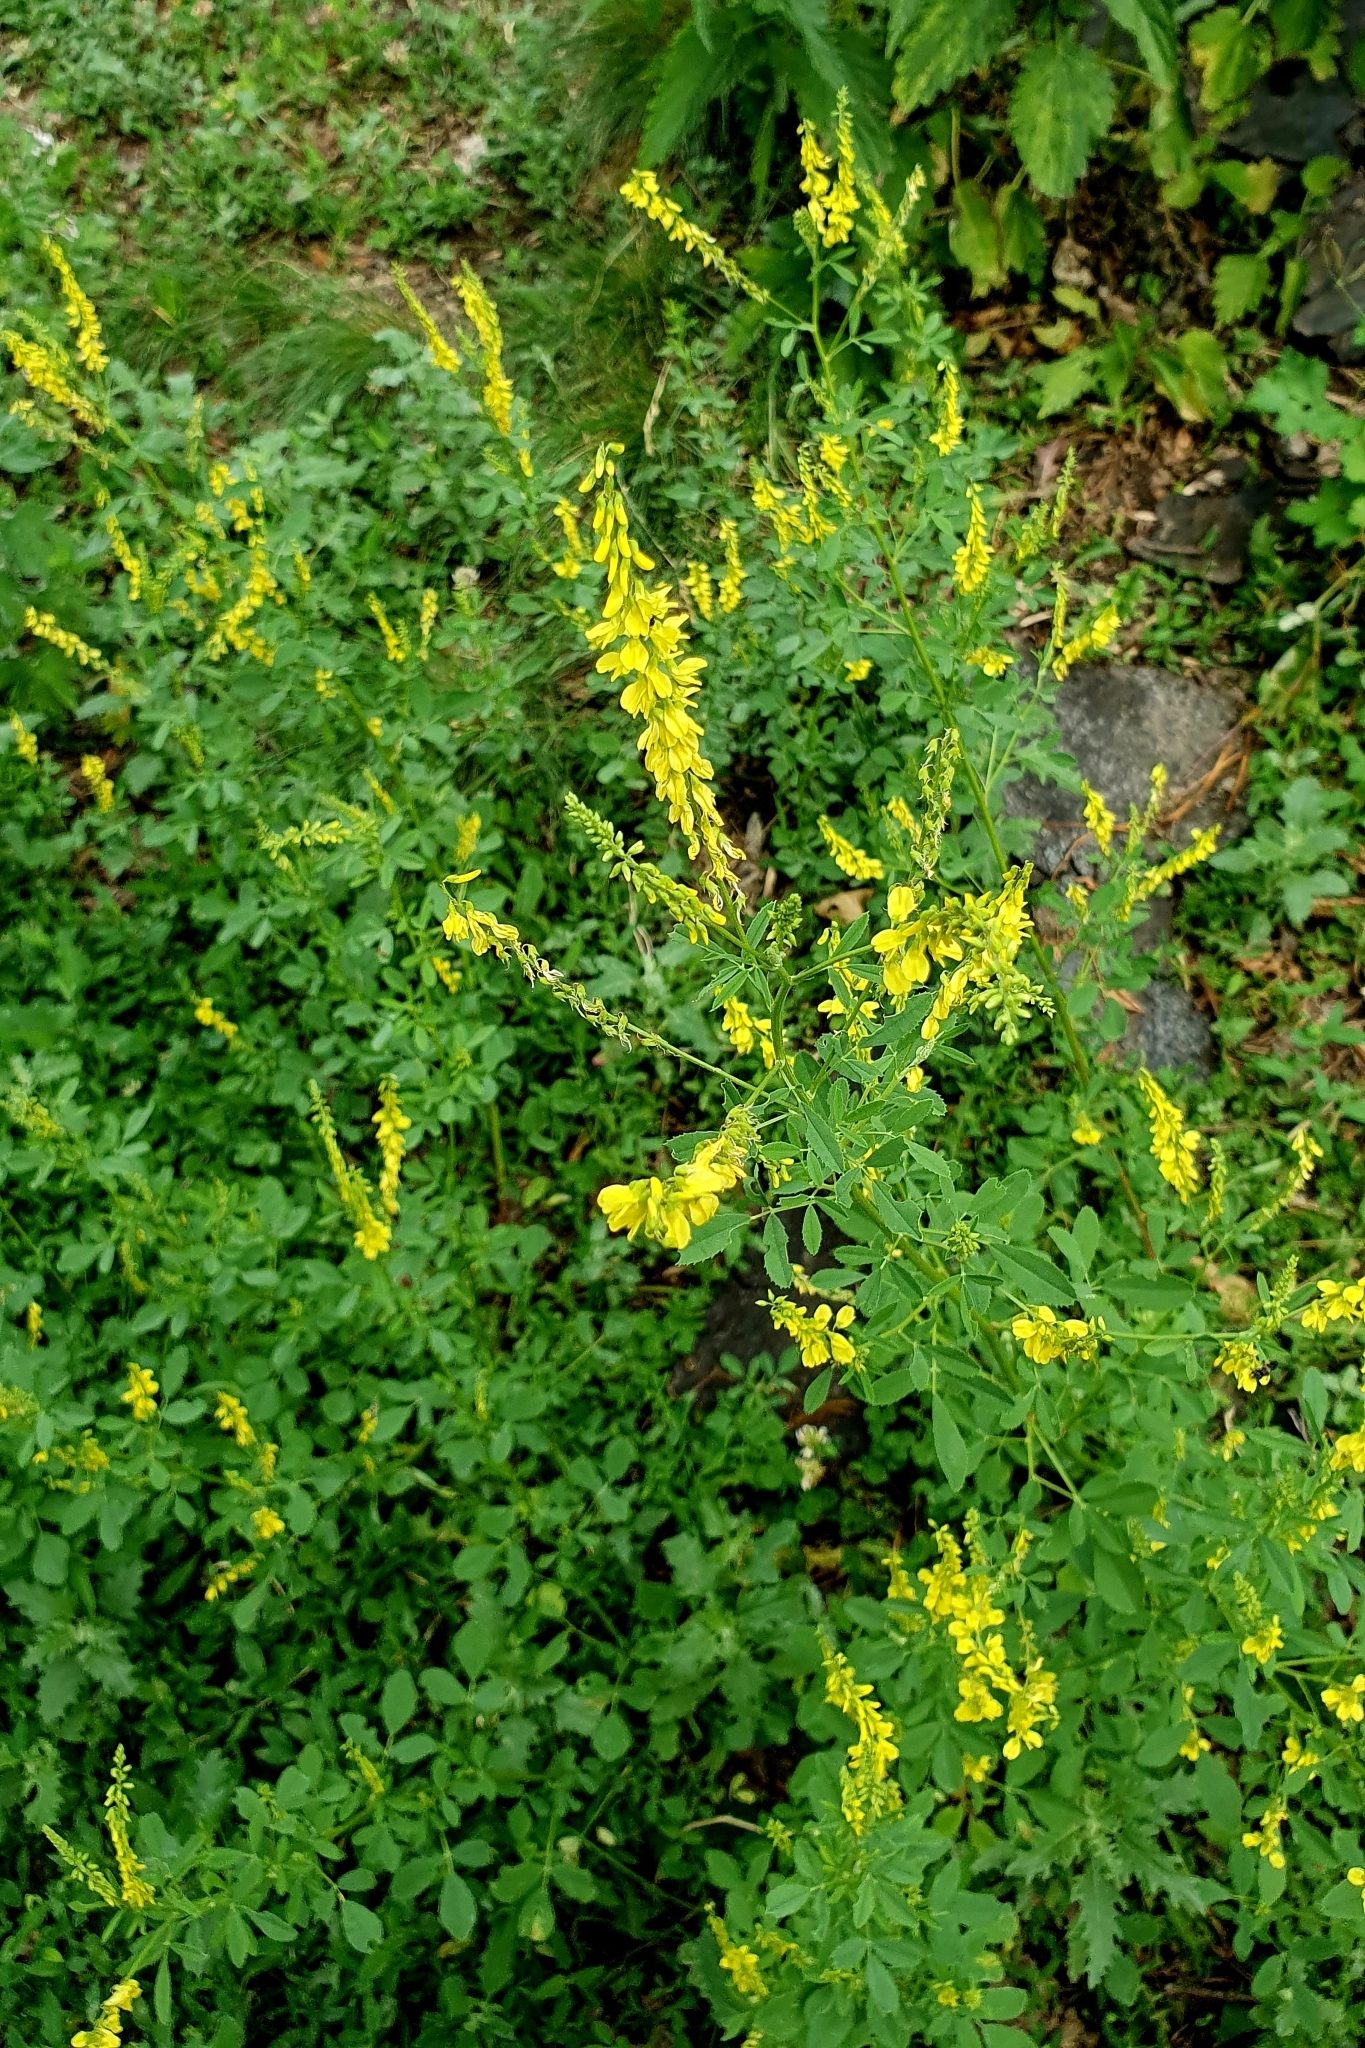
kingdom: Plantae
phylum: Tracheophyta
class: Magnoliopsida
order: Fabales
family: Fabaceae
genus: Melilotus
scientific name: Melilotus officinalis
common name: Sweetclover
